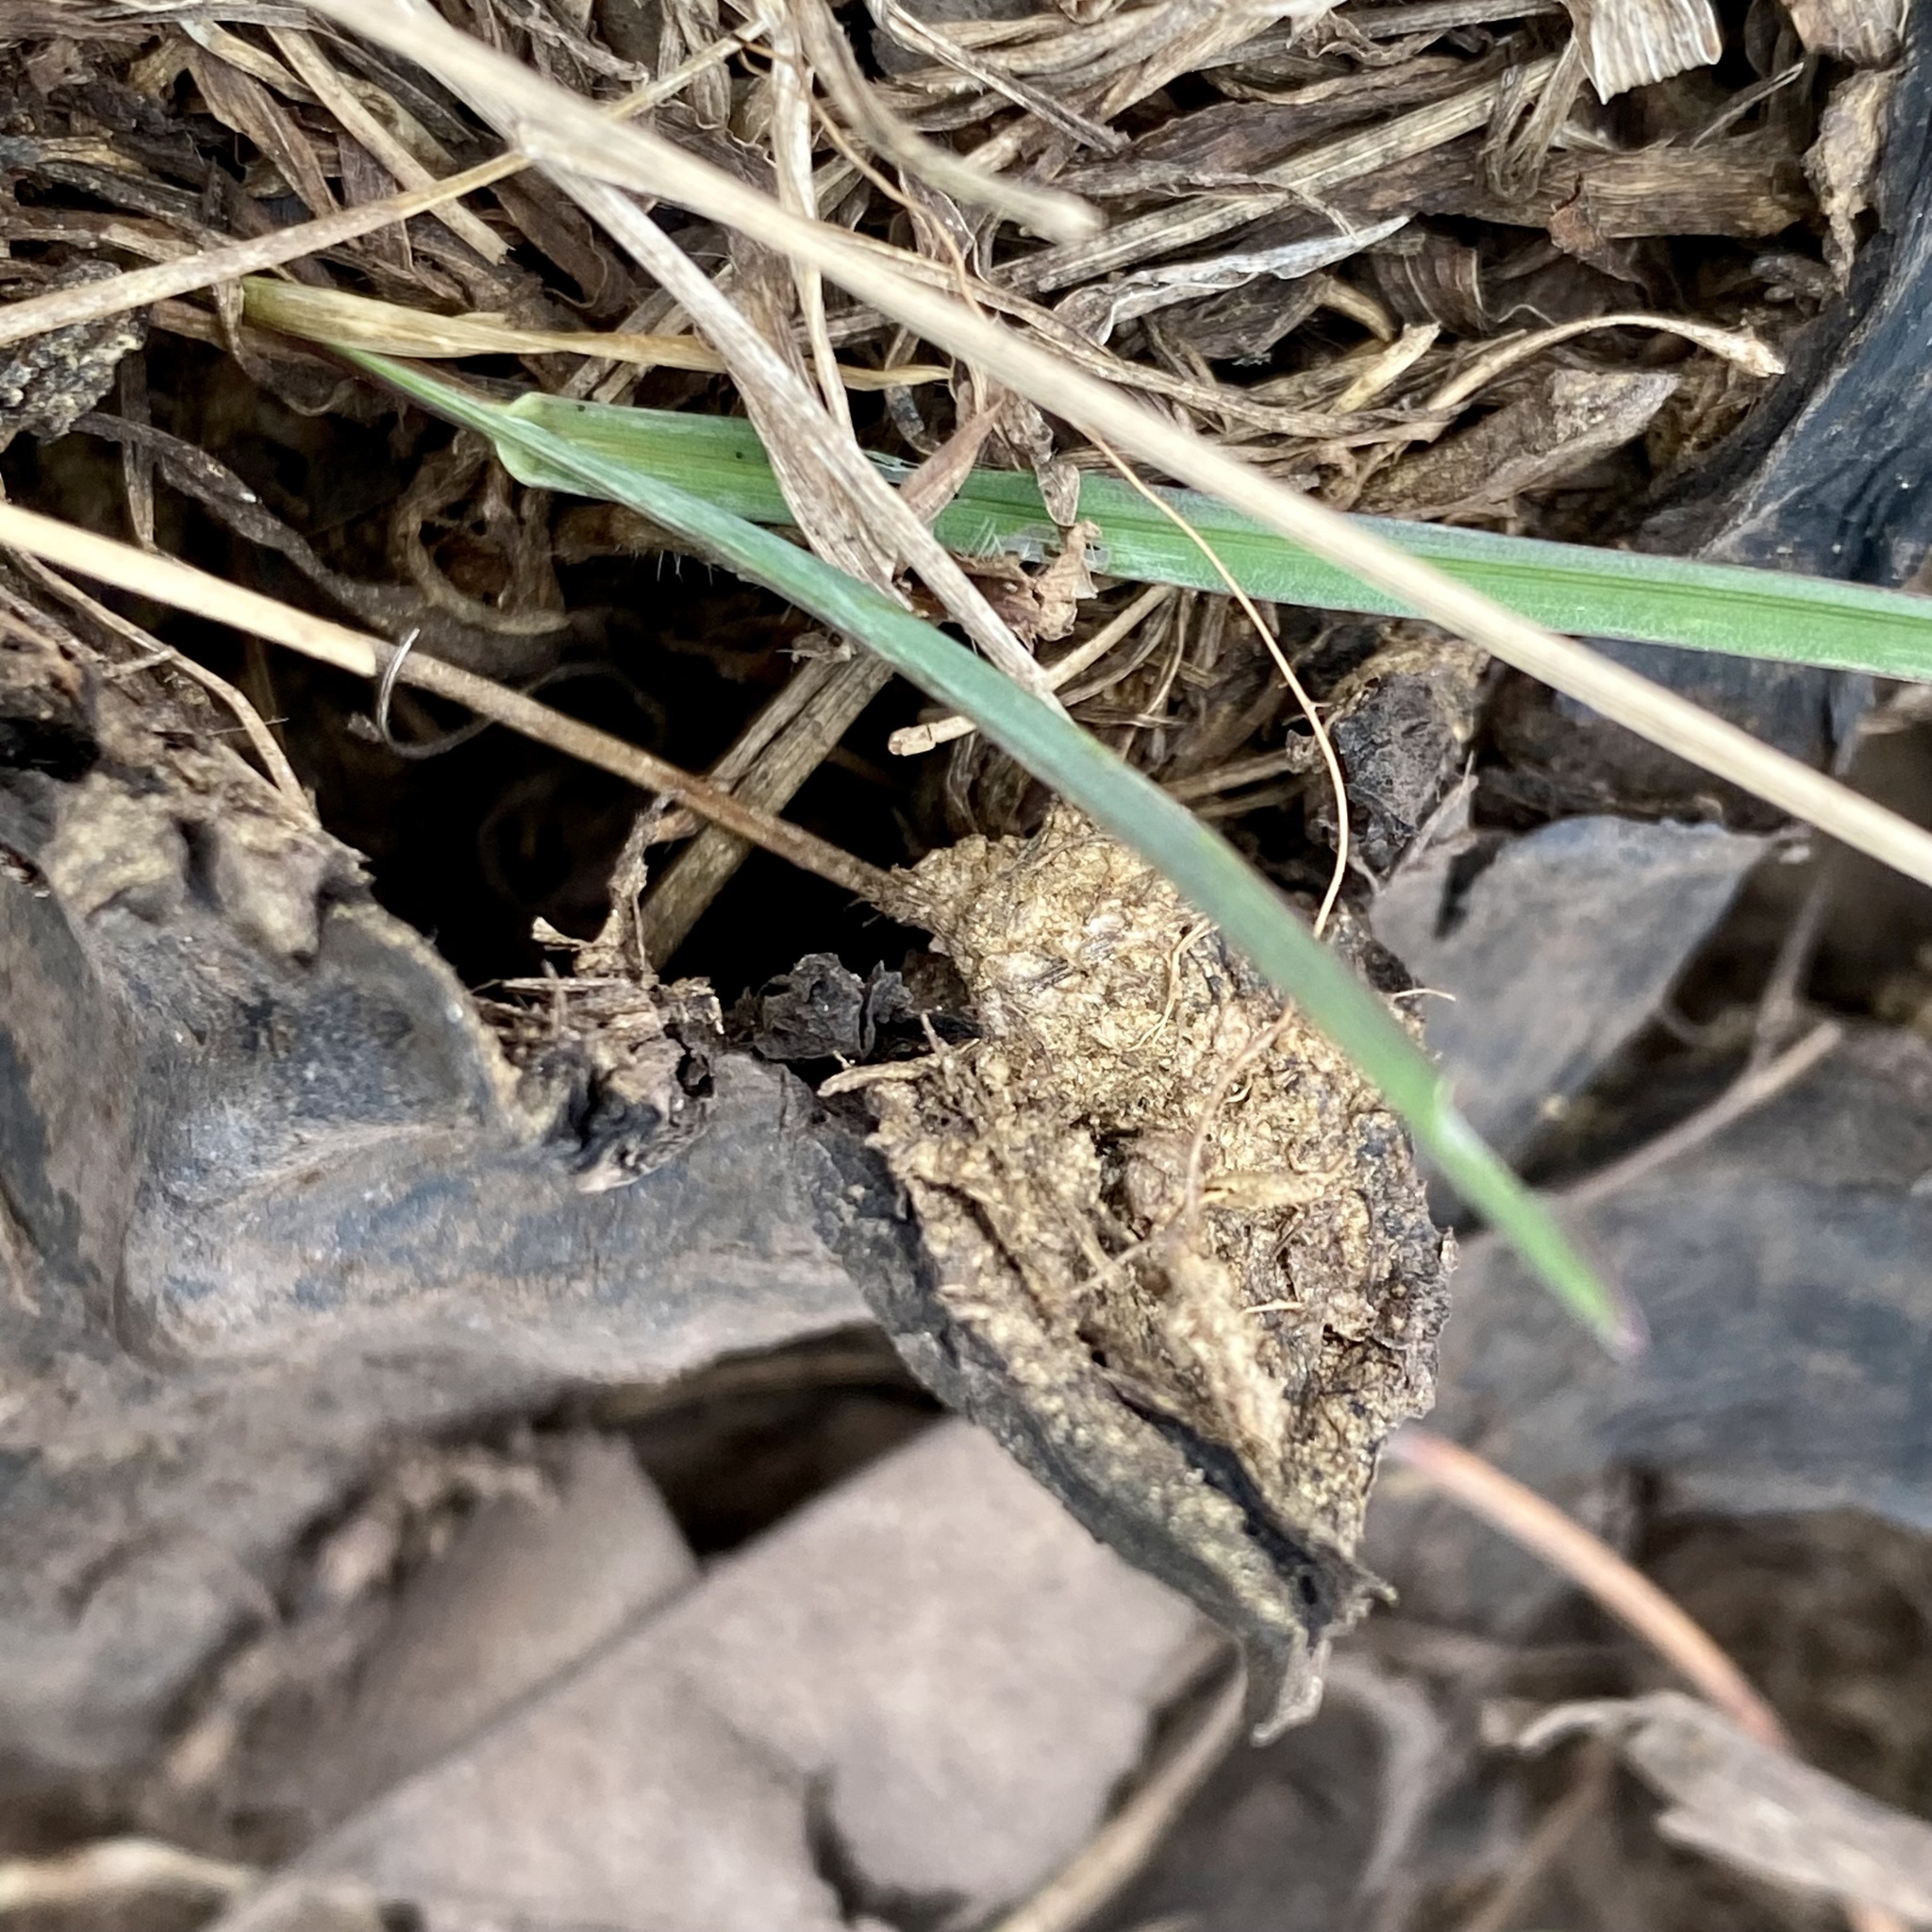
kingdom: Fungi
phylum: Basidiomycota
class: Agaricomycetes
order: Boletales
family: Sclerodermataceae
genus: Scleroderma
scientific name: Scleroderma polyrhizum
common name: Many-rooted earthball
